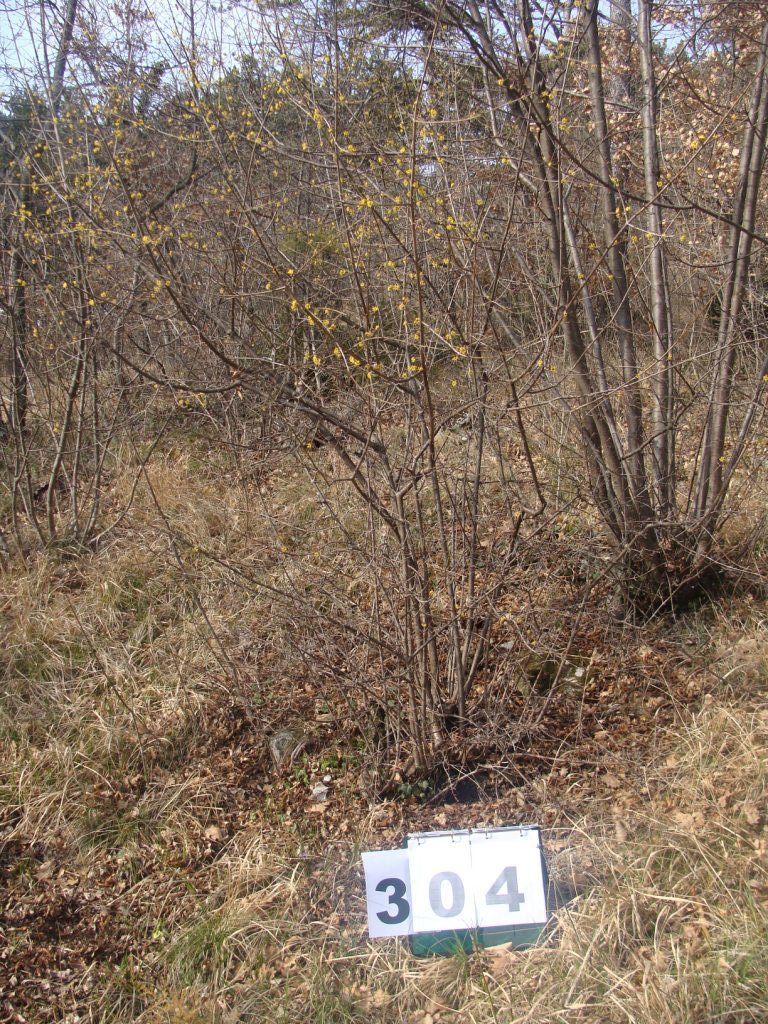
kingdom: Plantae
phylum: Tracheophyta
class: Magnoliopsida
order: Cornales
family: Cornaceae
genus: Cornus
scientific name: Cornus mas
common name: Cornelian-cherry
